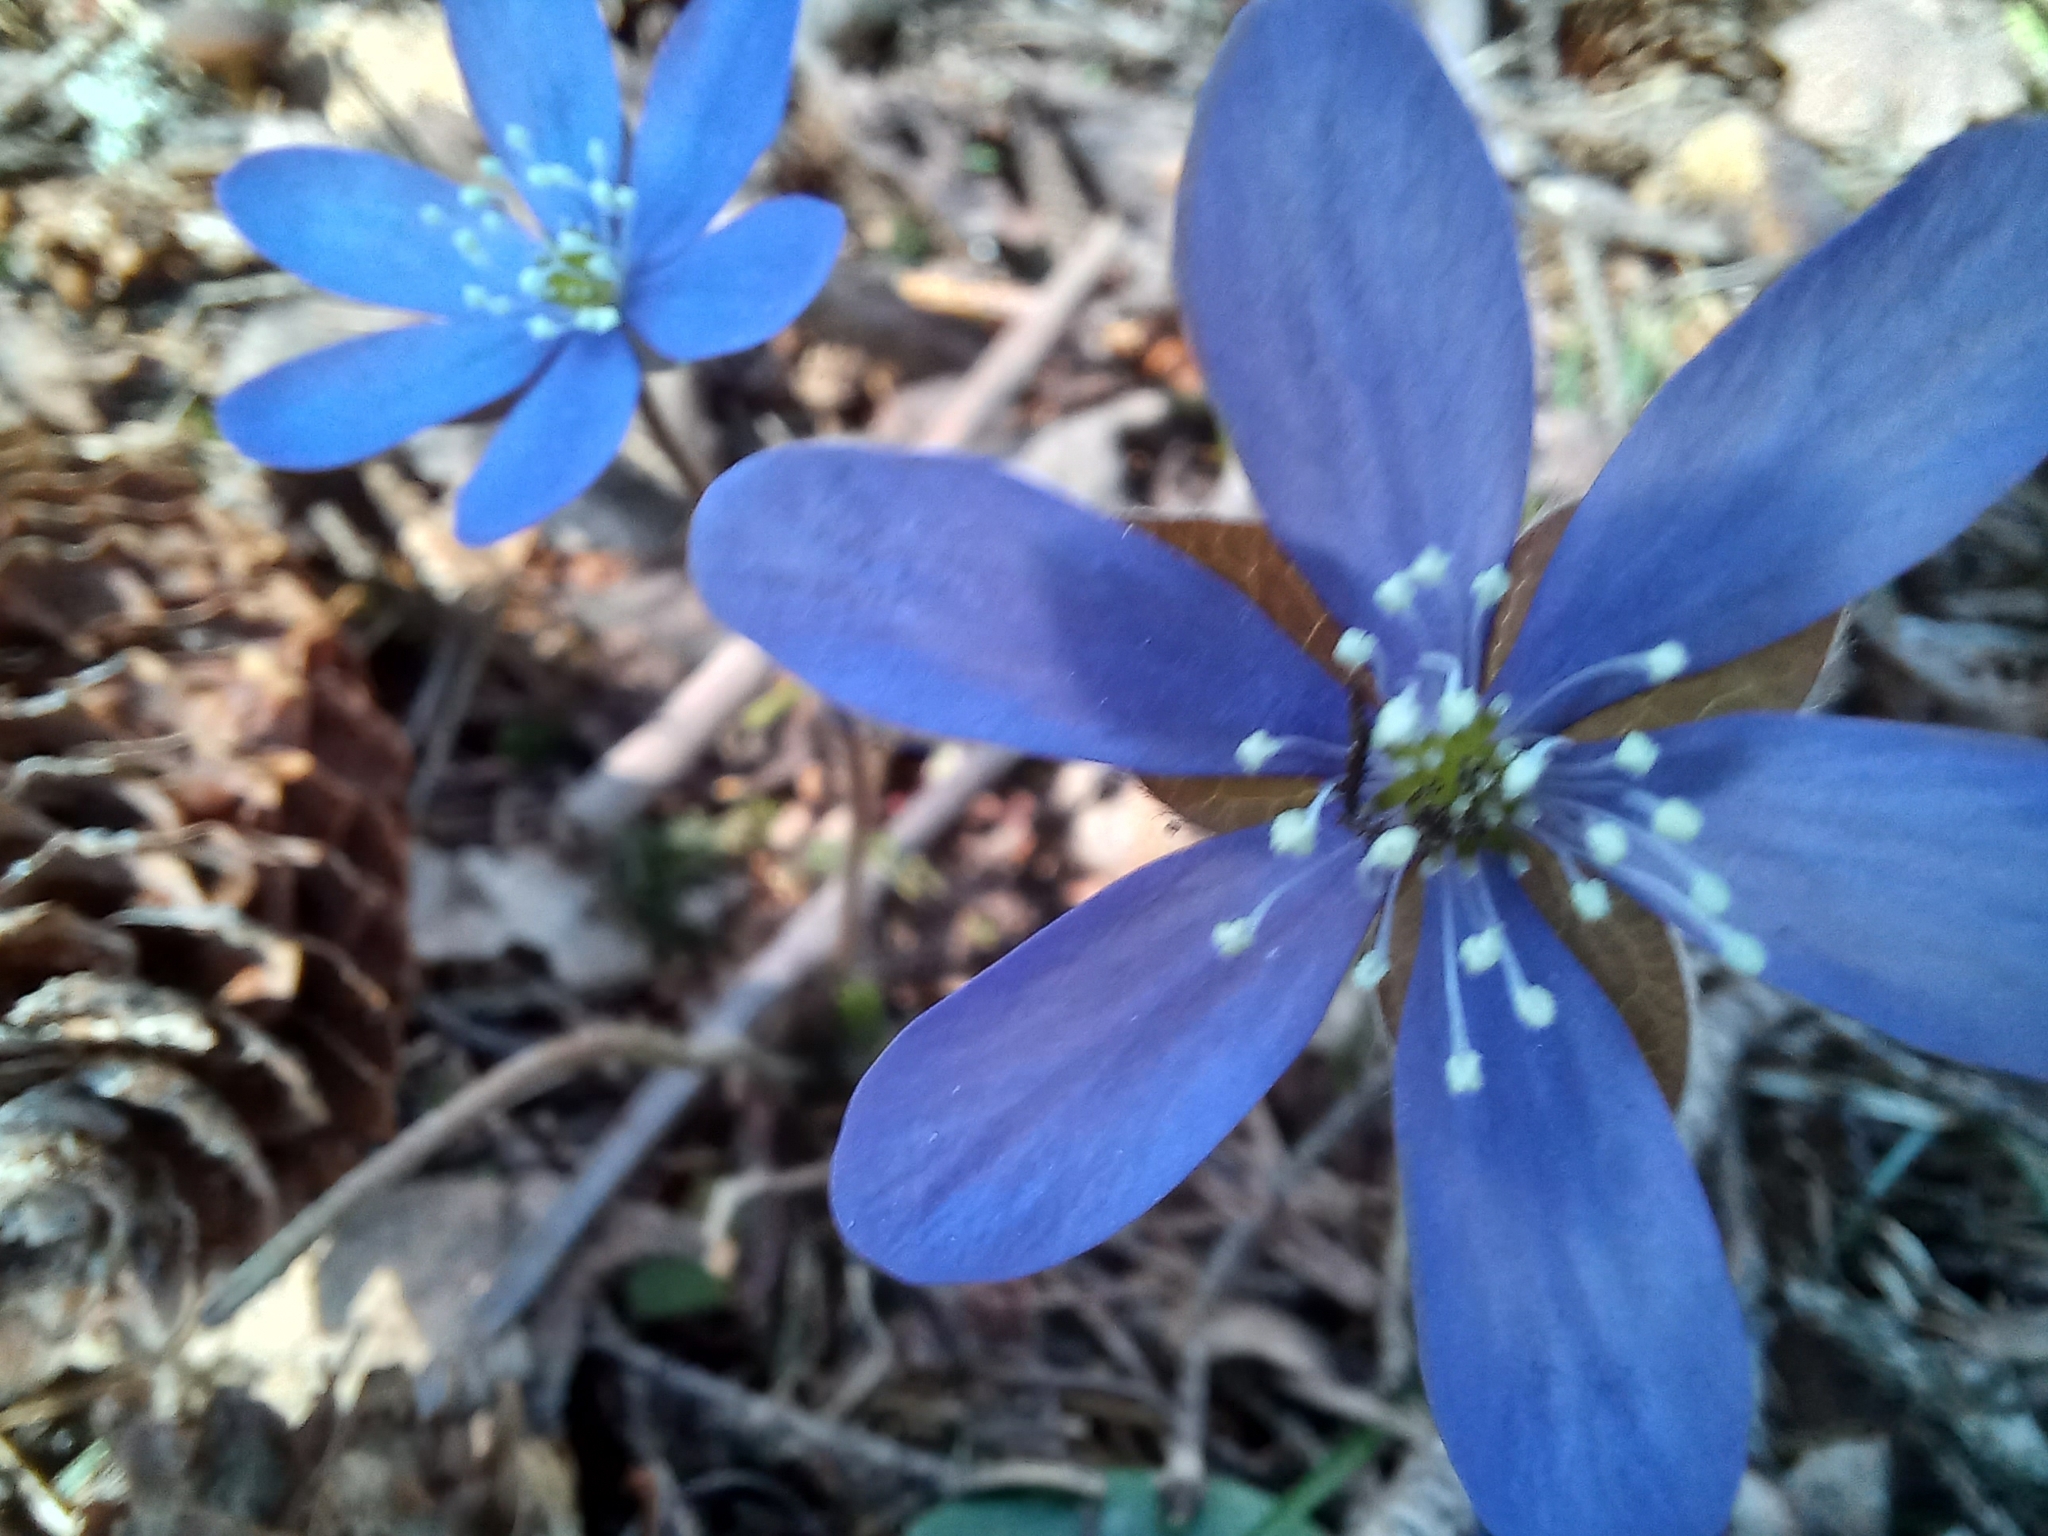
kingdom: Plantae
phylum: Tracheophyta
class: Magnoliopsida
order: Ranunculales
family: Ranunculaceae
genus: Hepatica
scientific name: Hepatica nobilis
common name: Liverleaf
